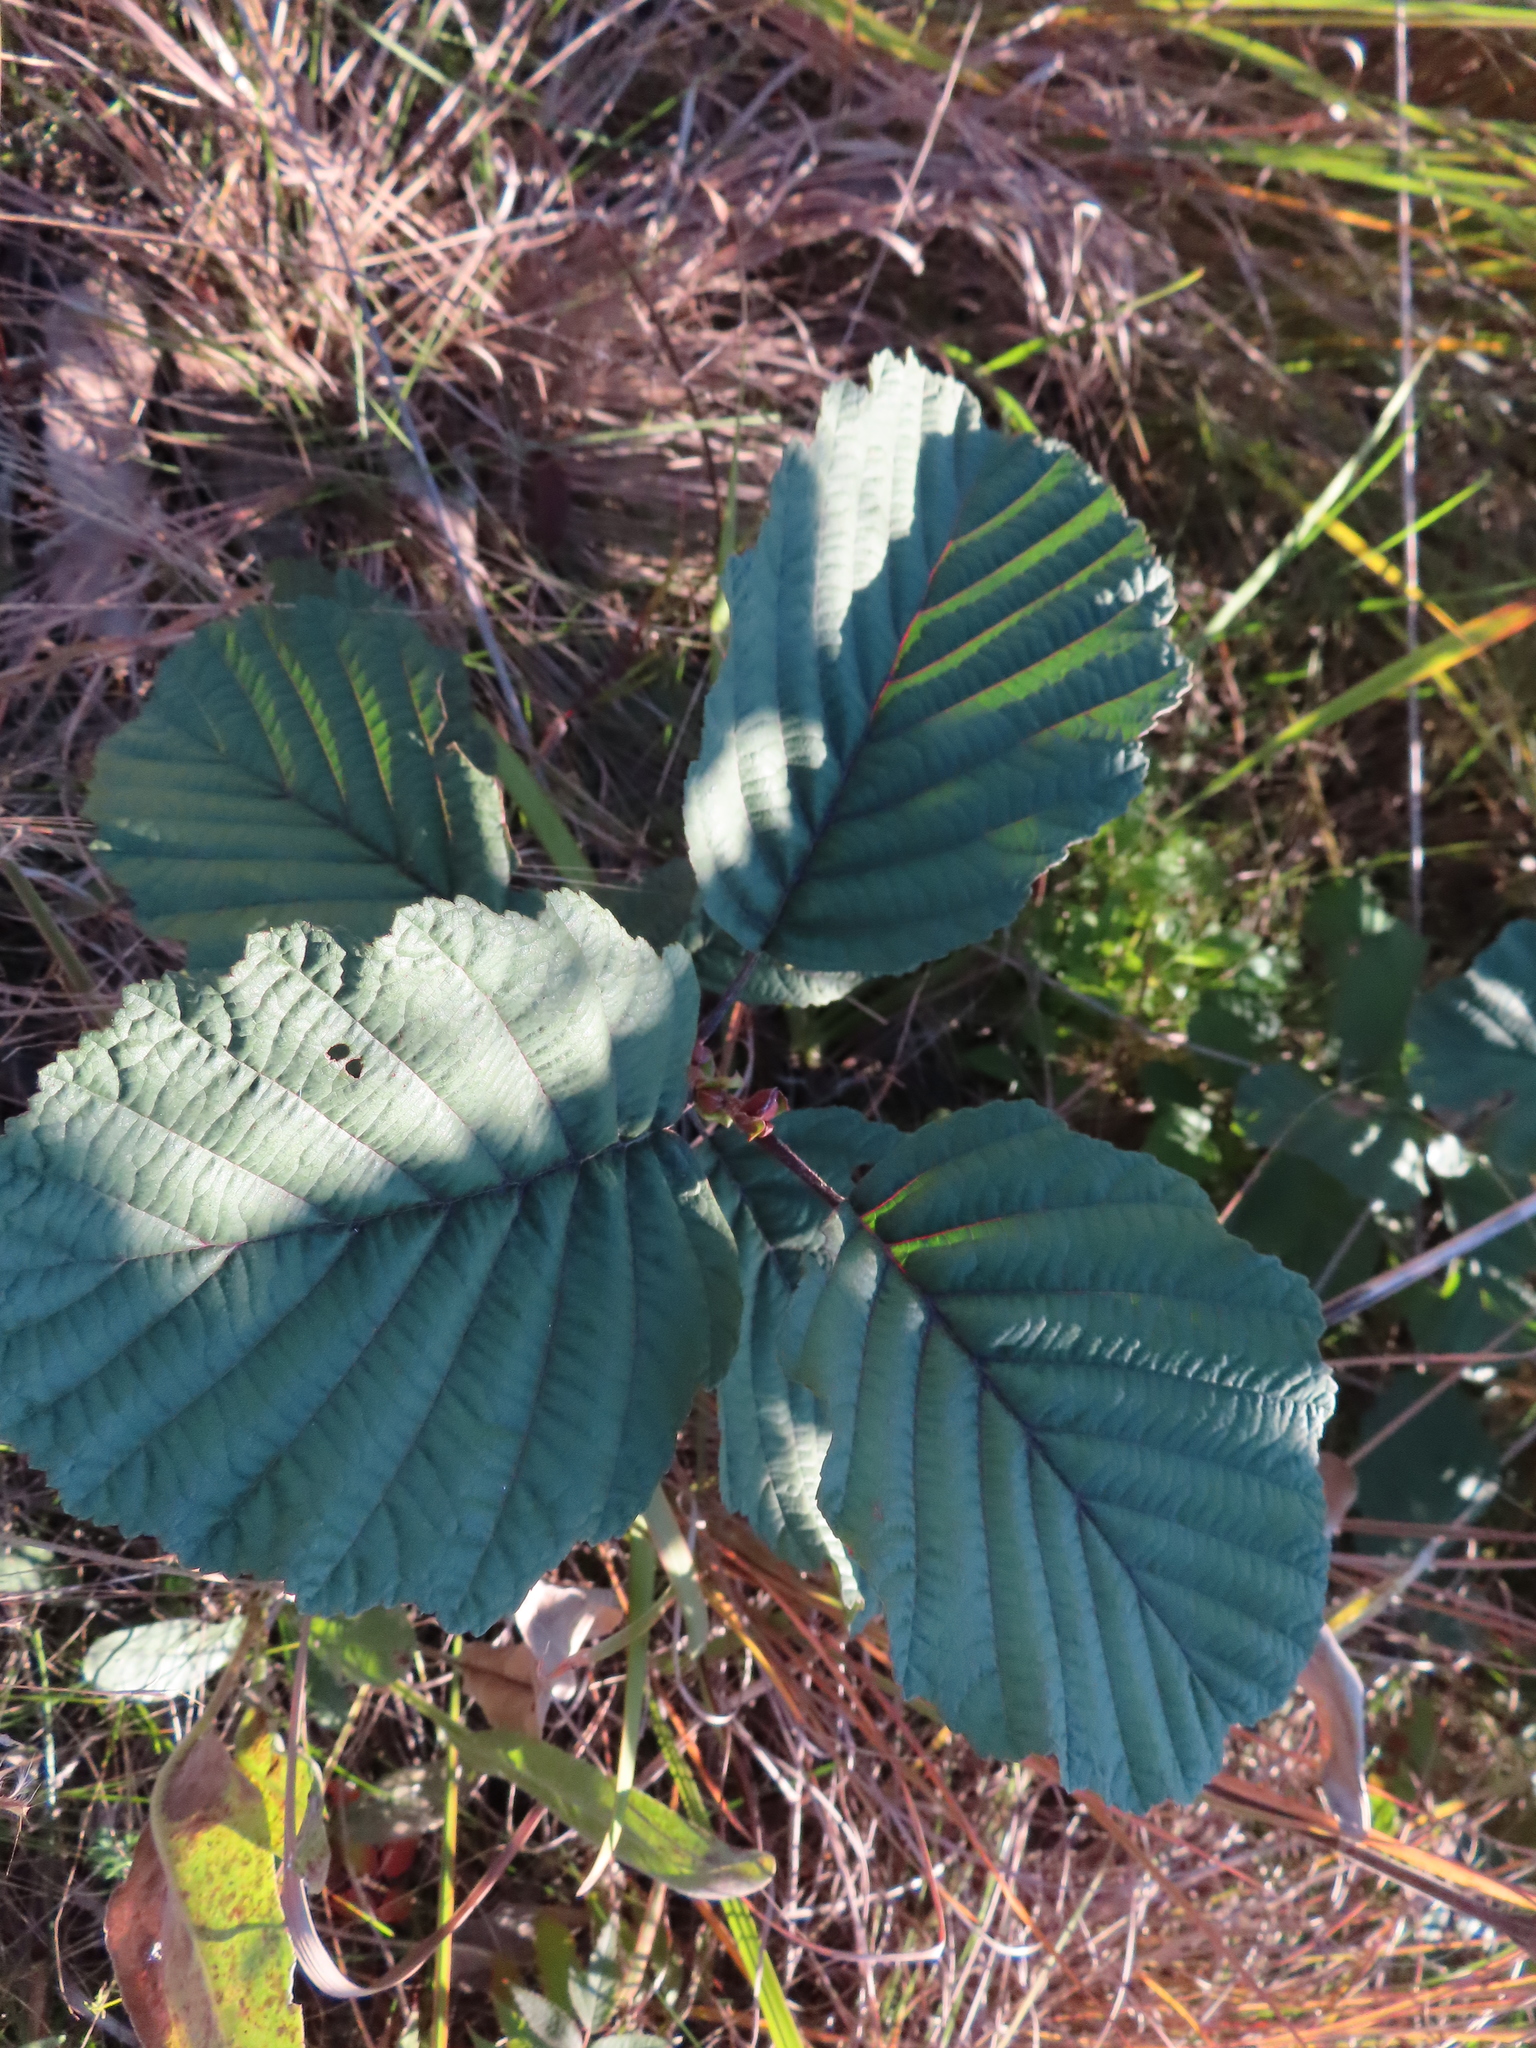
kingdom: Plantae
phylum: Tracheophyta
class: Magnoliopsida
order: Fagales
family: Betulaceae
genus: Alnus
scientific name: Alnus glutinosa
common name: Black alder
